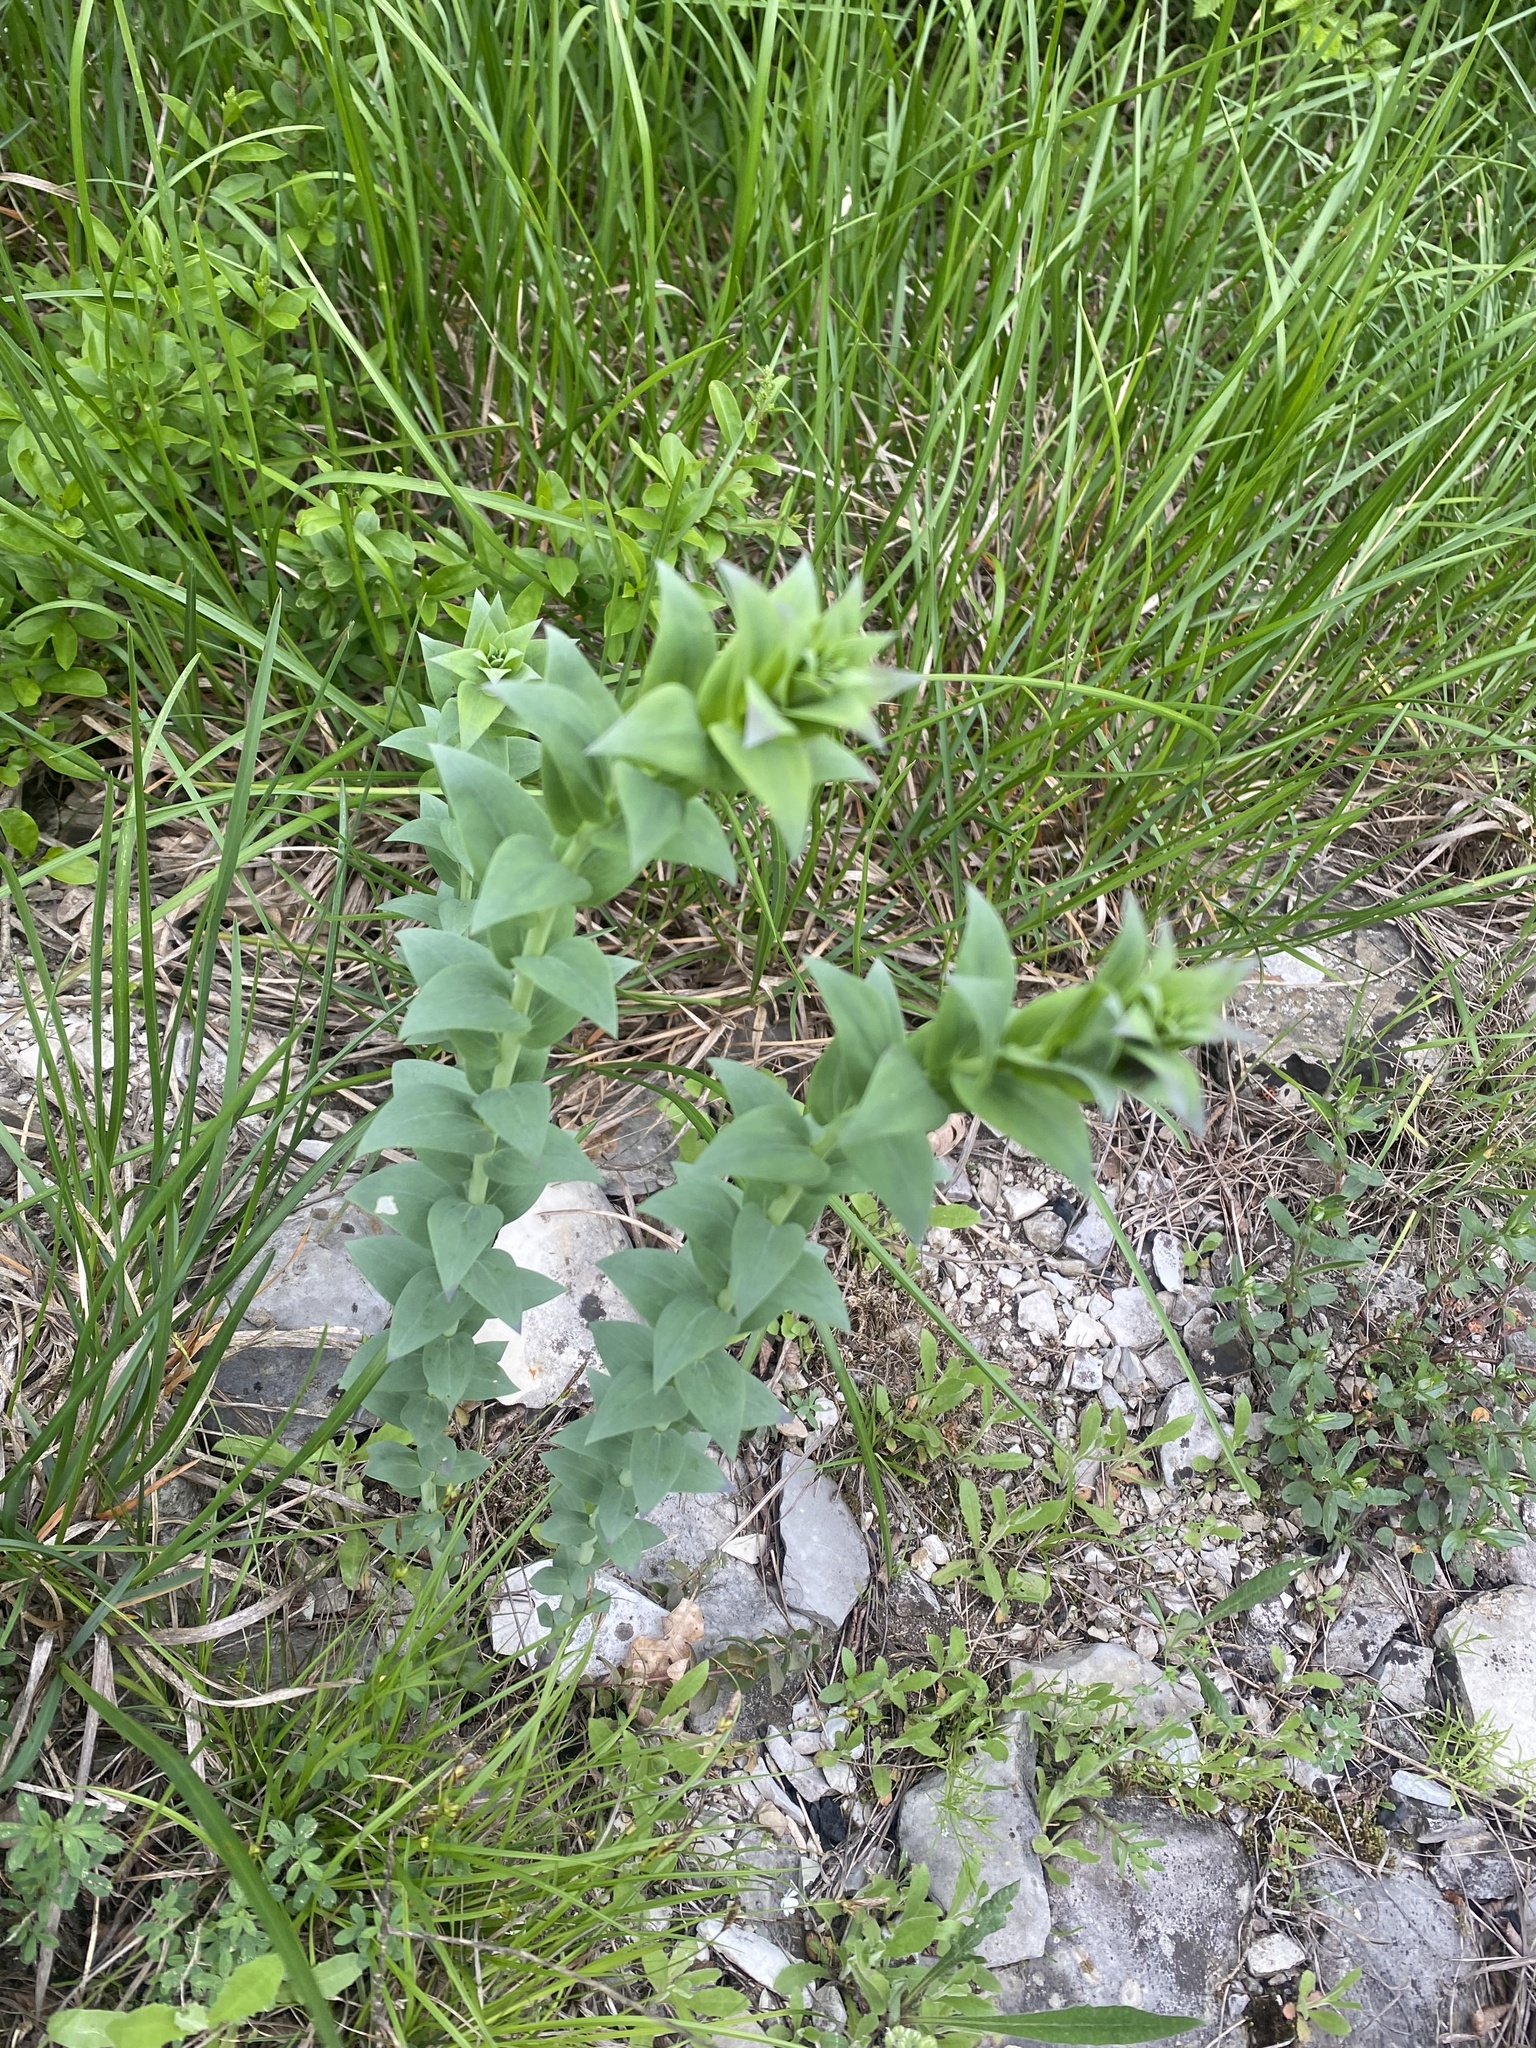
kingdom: Plantae
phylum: Tracheophyta
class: Magnoliopsida
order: Lamiales
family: Plantaginaceae
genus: Linaria
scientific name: Linaria genistifolia
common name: Broomleaf toadflax
